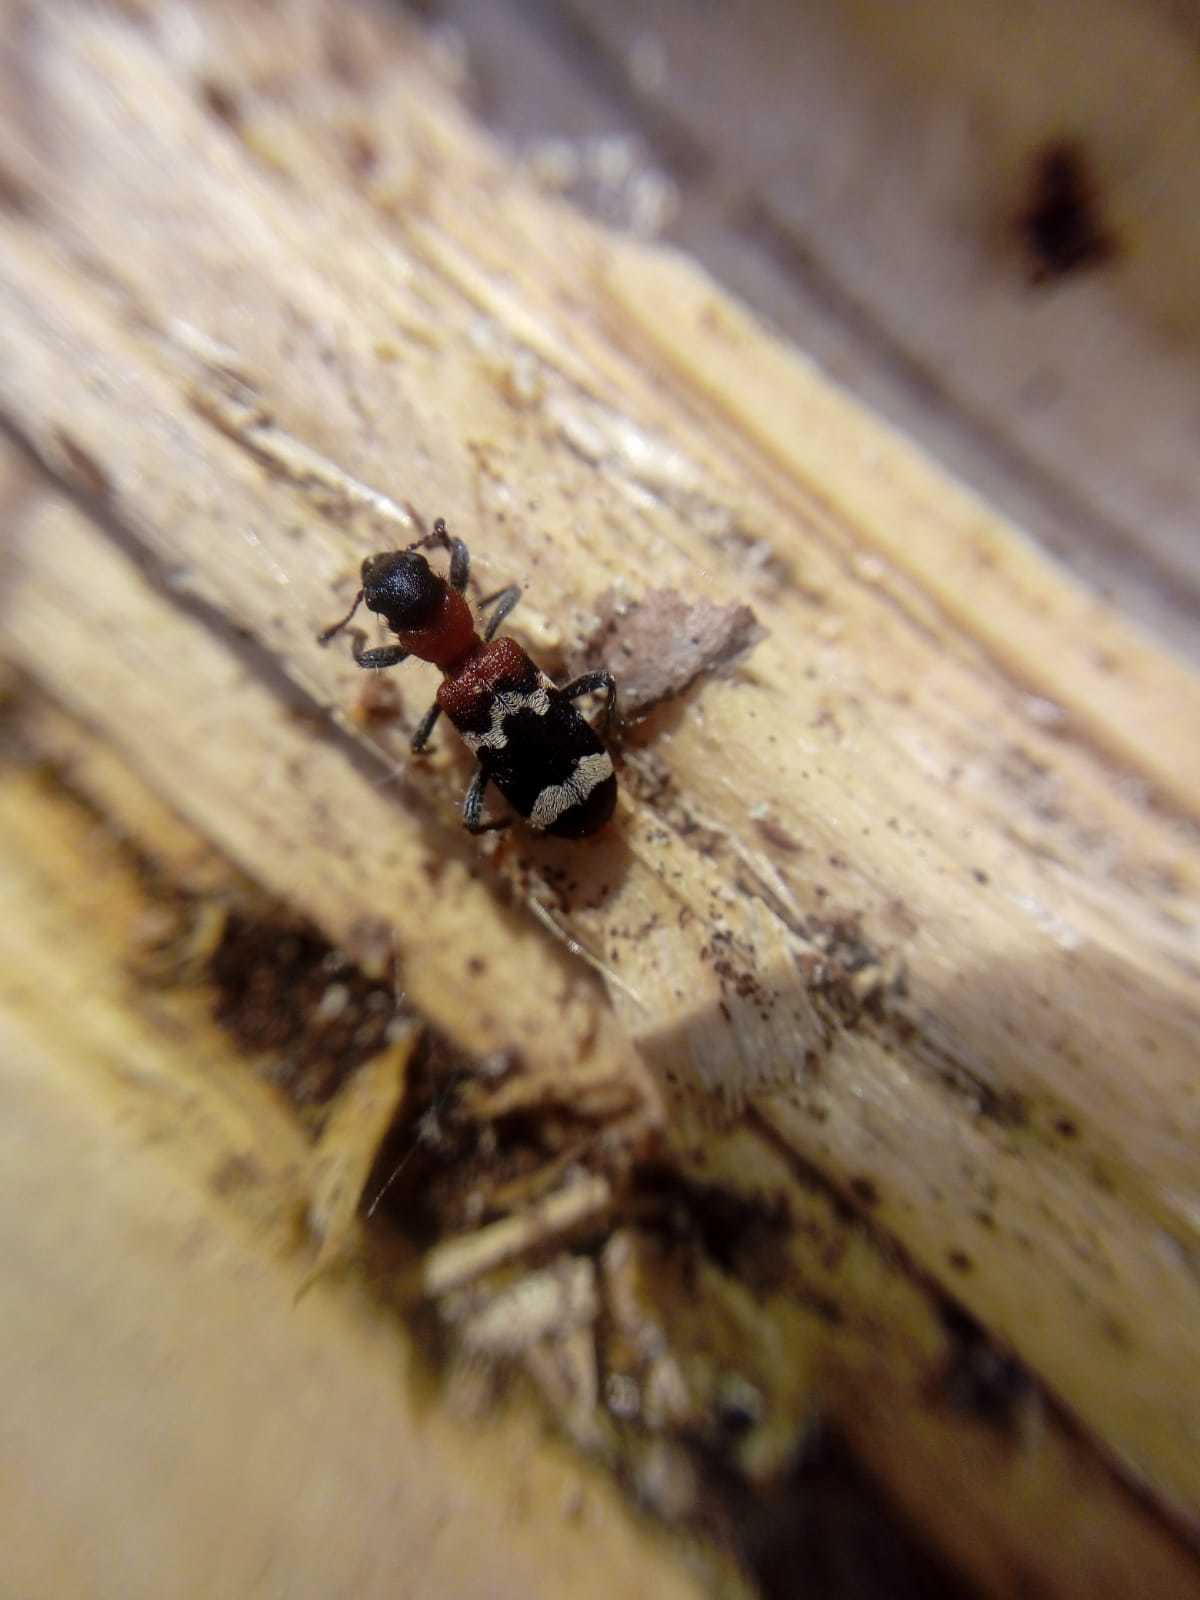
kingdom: Animalia
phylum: Arthropoda
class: Insecta
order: Coleoptera
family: Cleridae
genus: Thanasimus
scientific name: Thanasimus formicarius
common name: Ant beetle
